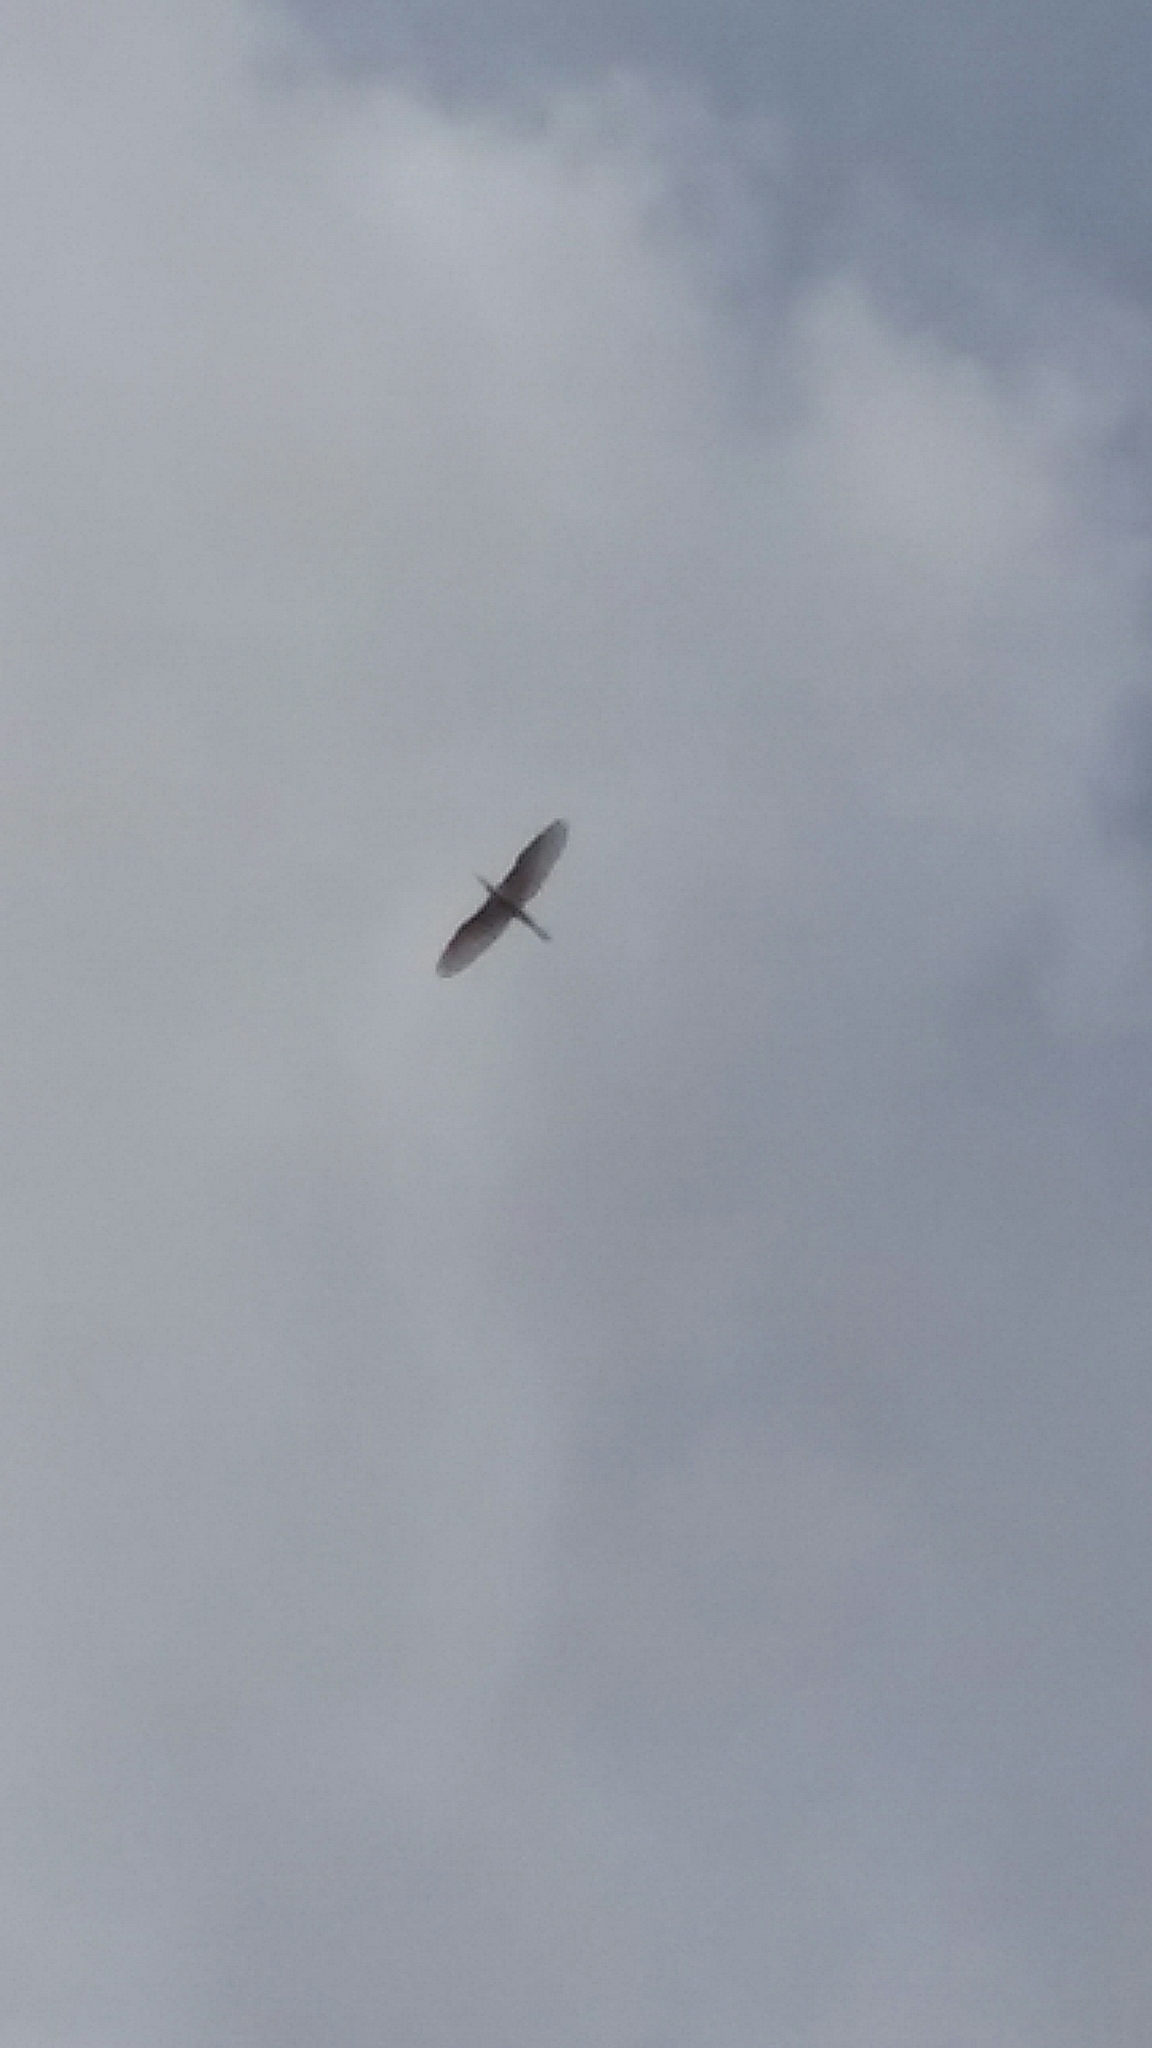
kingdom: Animalia
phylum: Chordata
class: Aves
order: Pelecaniformes
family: Ardeidae
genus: Ardea
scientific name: Ardea alba
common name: Great egret
